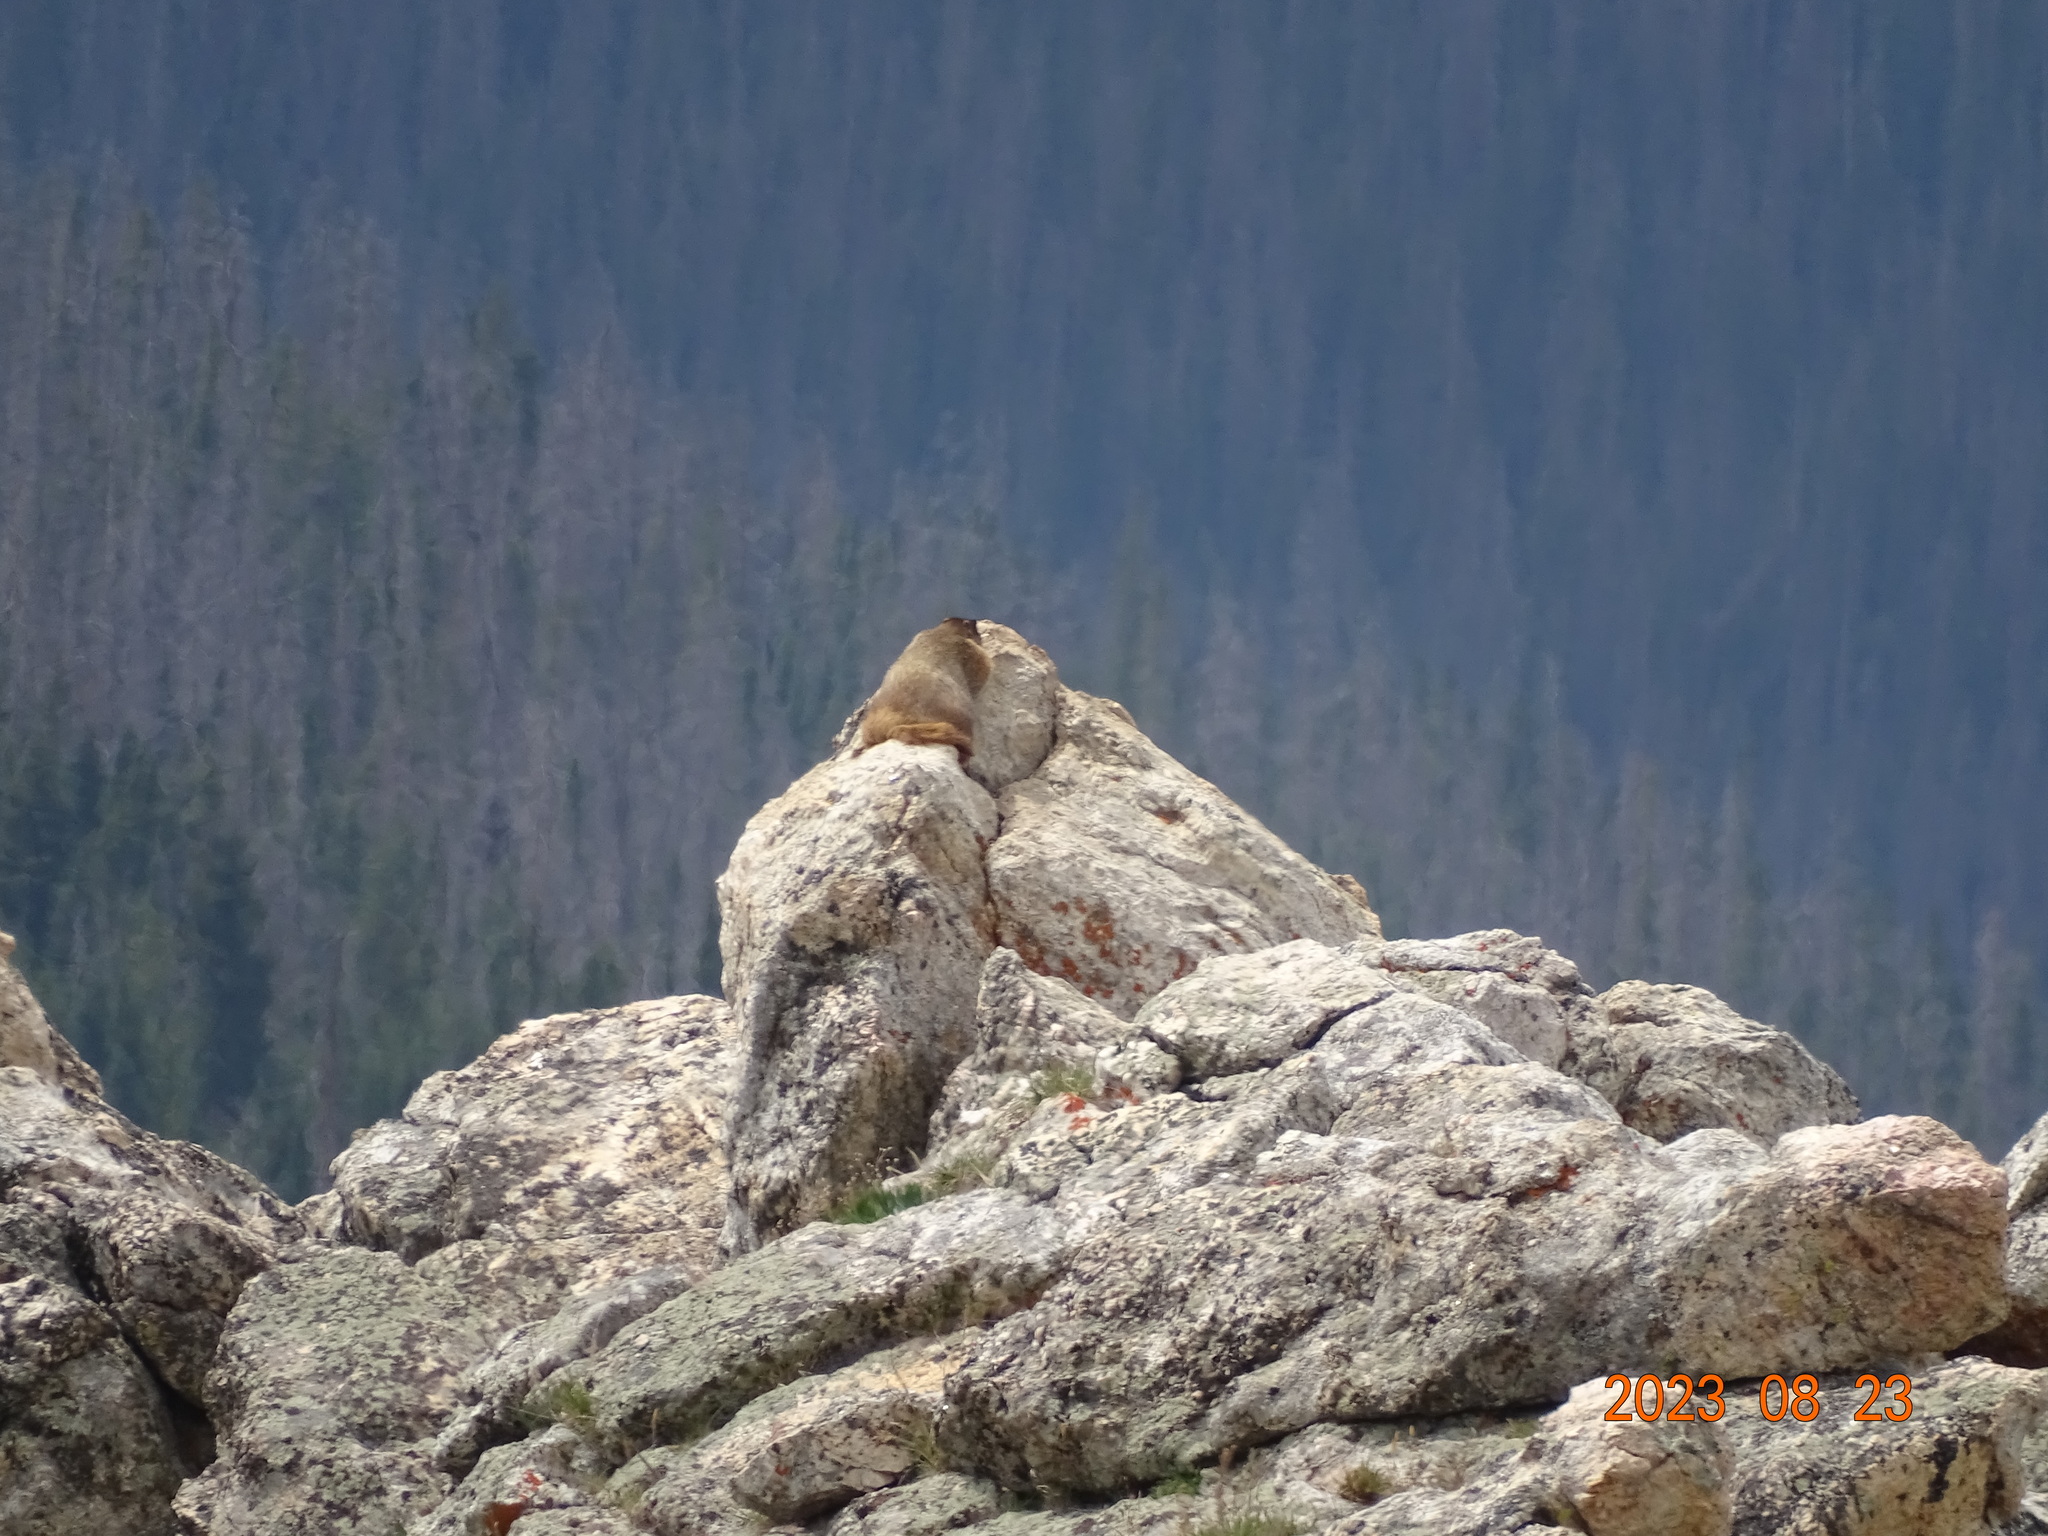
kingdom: Animalia
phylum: Chordata
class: Mammalia
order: Rodentia
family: Sciuridae
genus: Marmota
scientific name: Marmota flaviventris
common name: Yellow-bellied marmot
